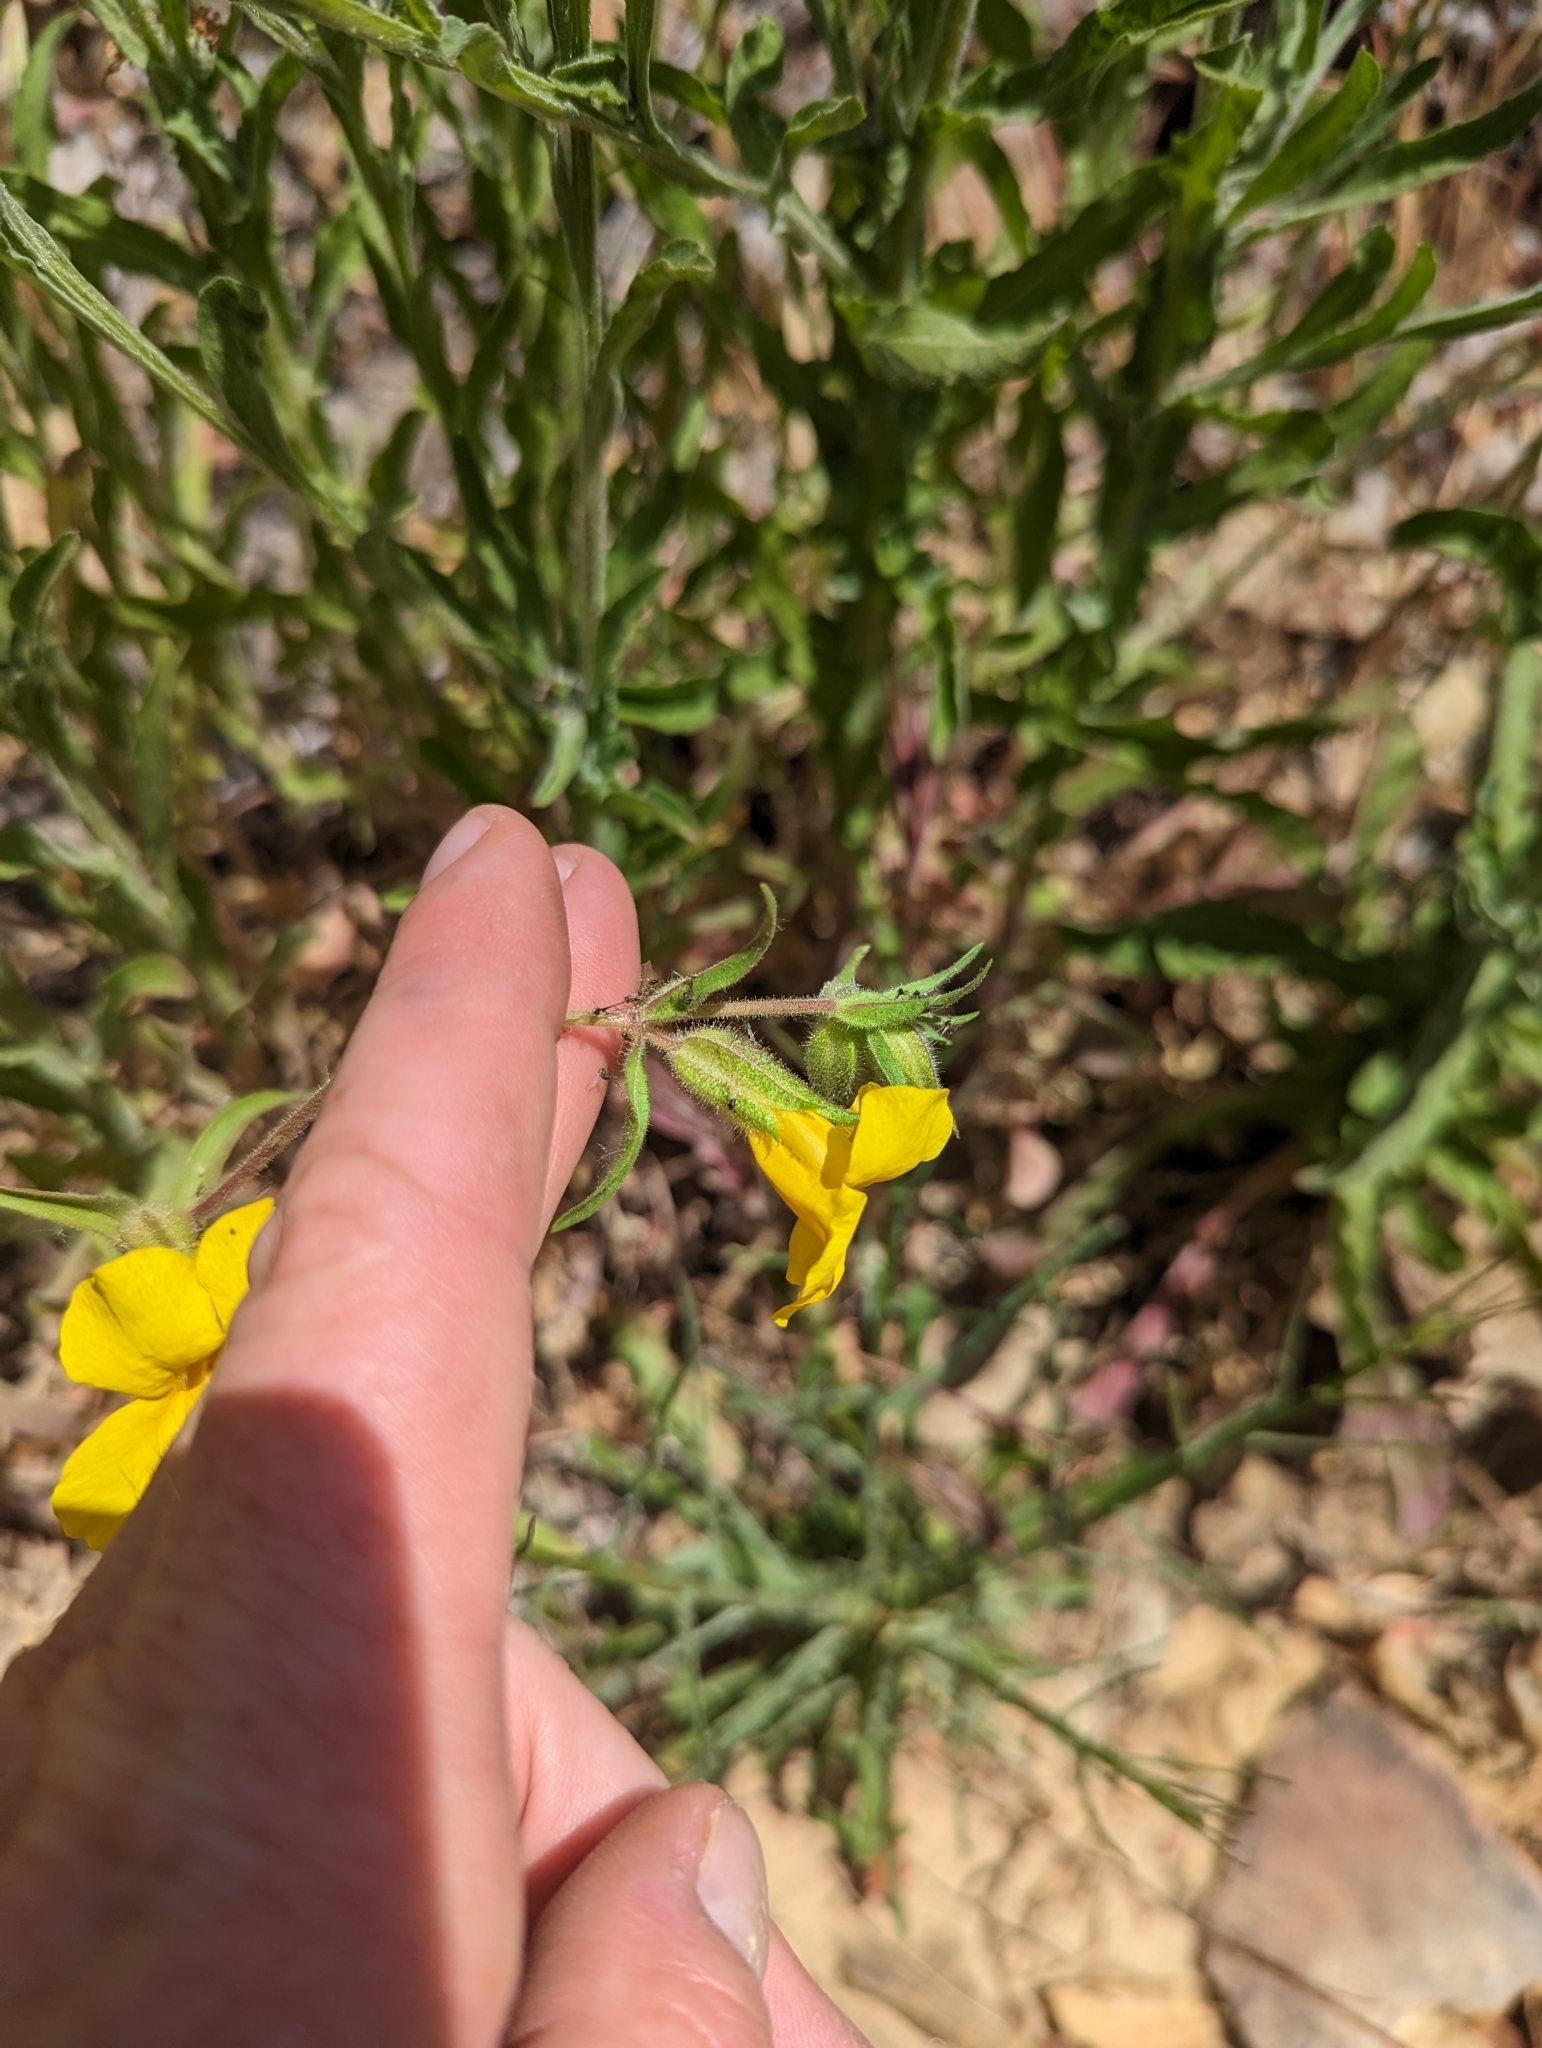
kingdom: Plantae
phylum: Tracheophyta
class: Magnoliopsida
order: Lamiales
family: Phrymaceae
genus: Diplacus
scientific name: Diplacus brevipes
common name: Wide-throat yellow monkey-flower
